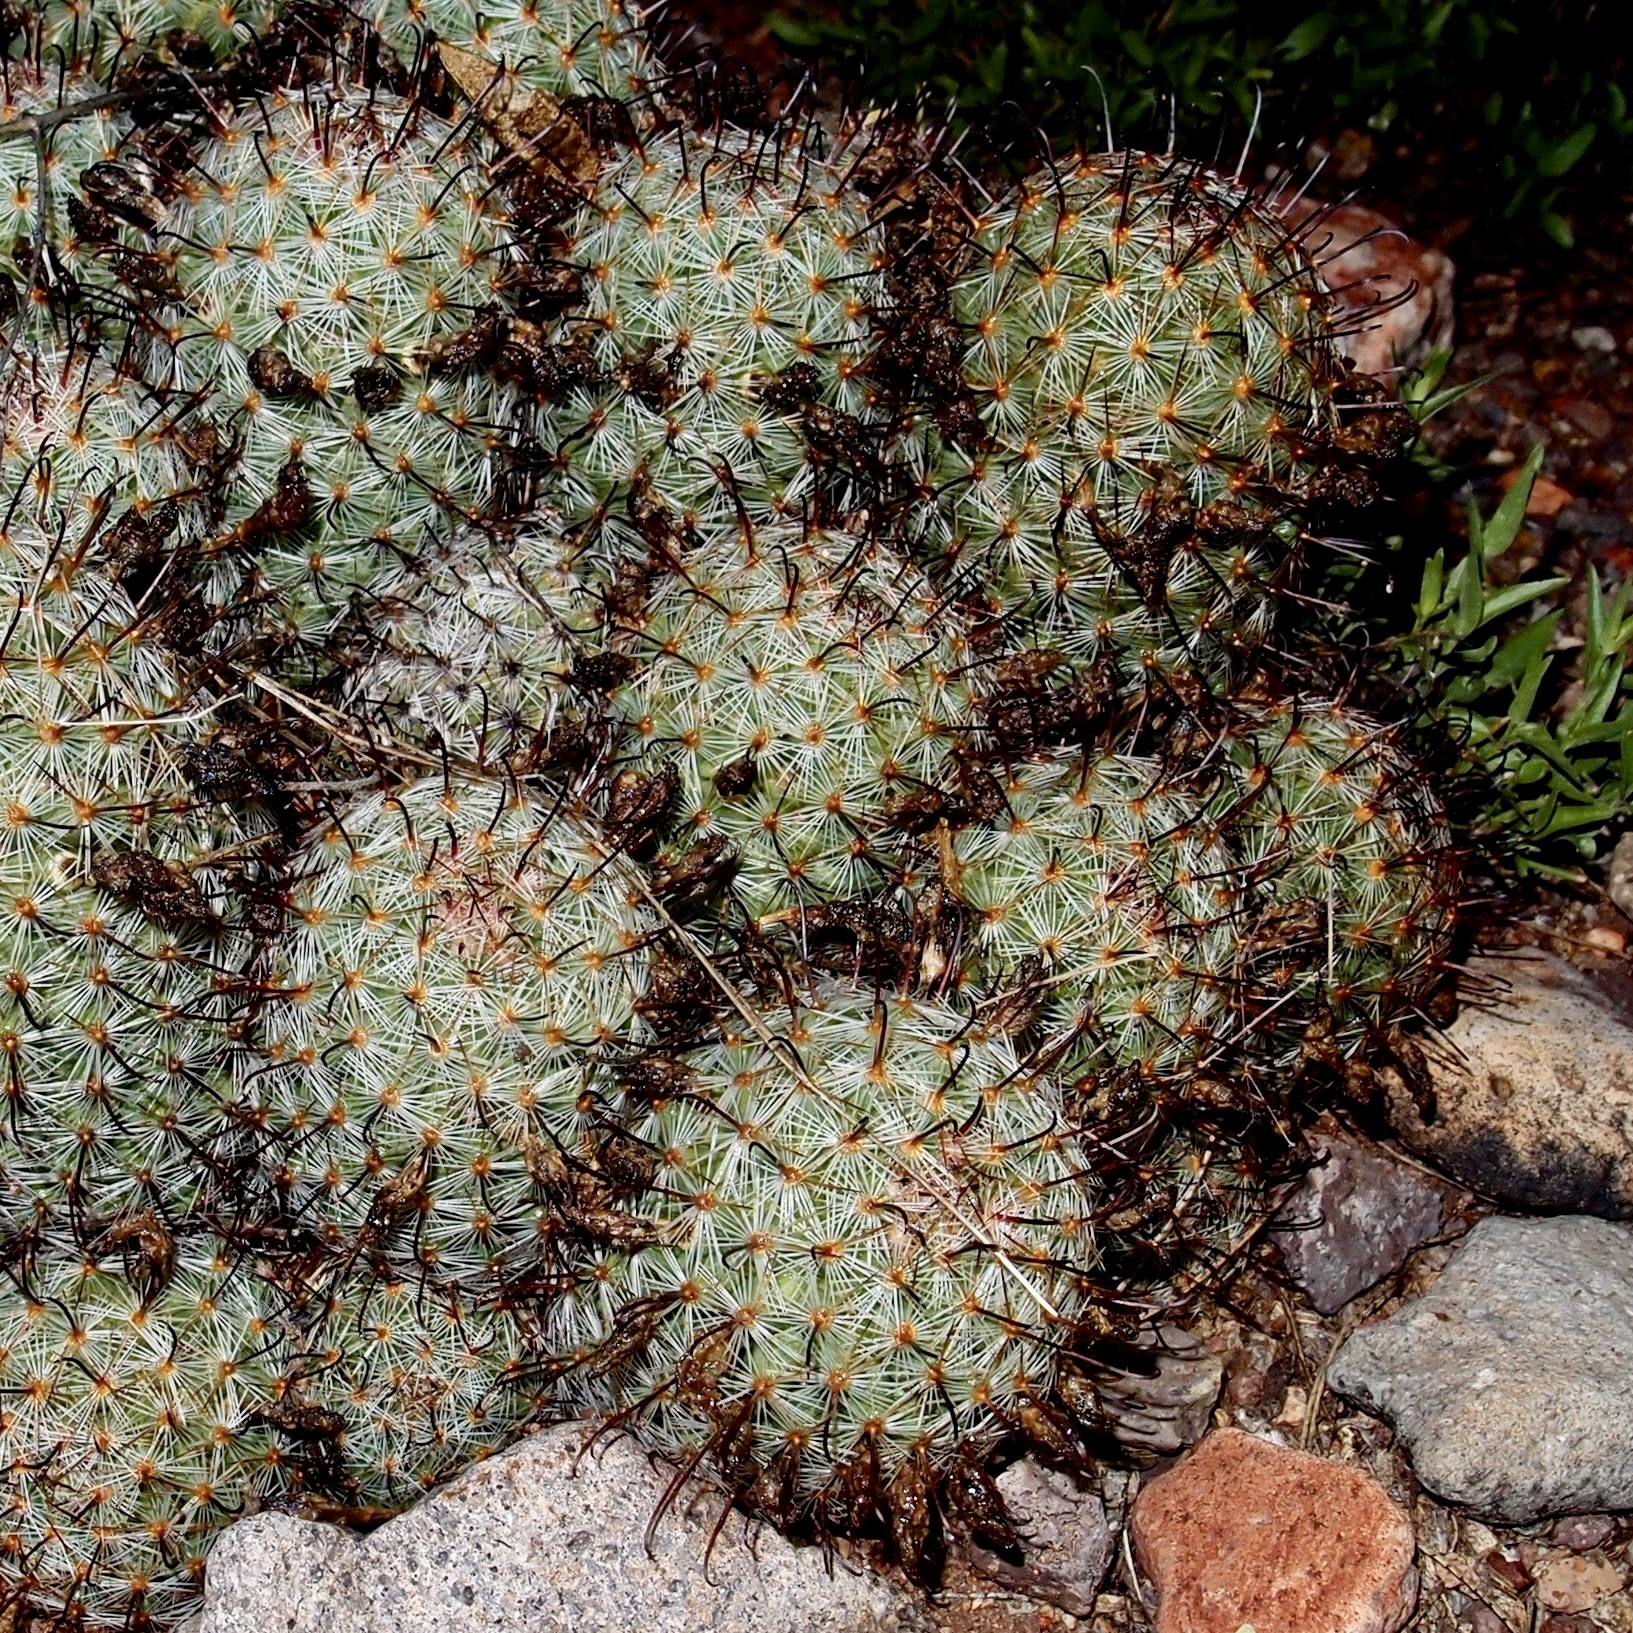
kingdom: Plantae
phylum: Tracheophyta
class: Magnoliopsida
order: Caryophyllales
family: Cactaceae
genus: Cochemiea
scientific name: Cochemiea grahamii
